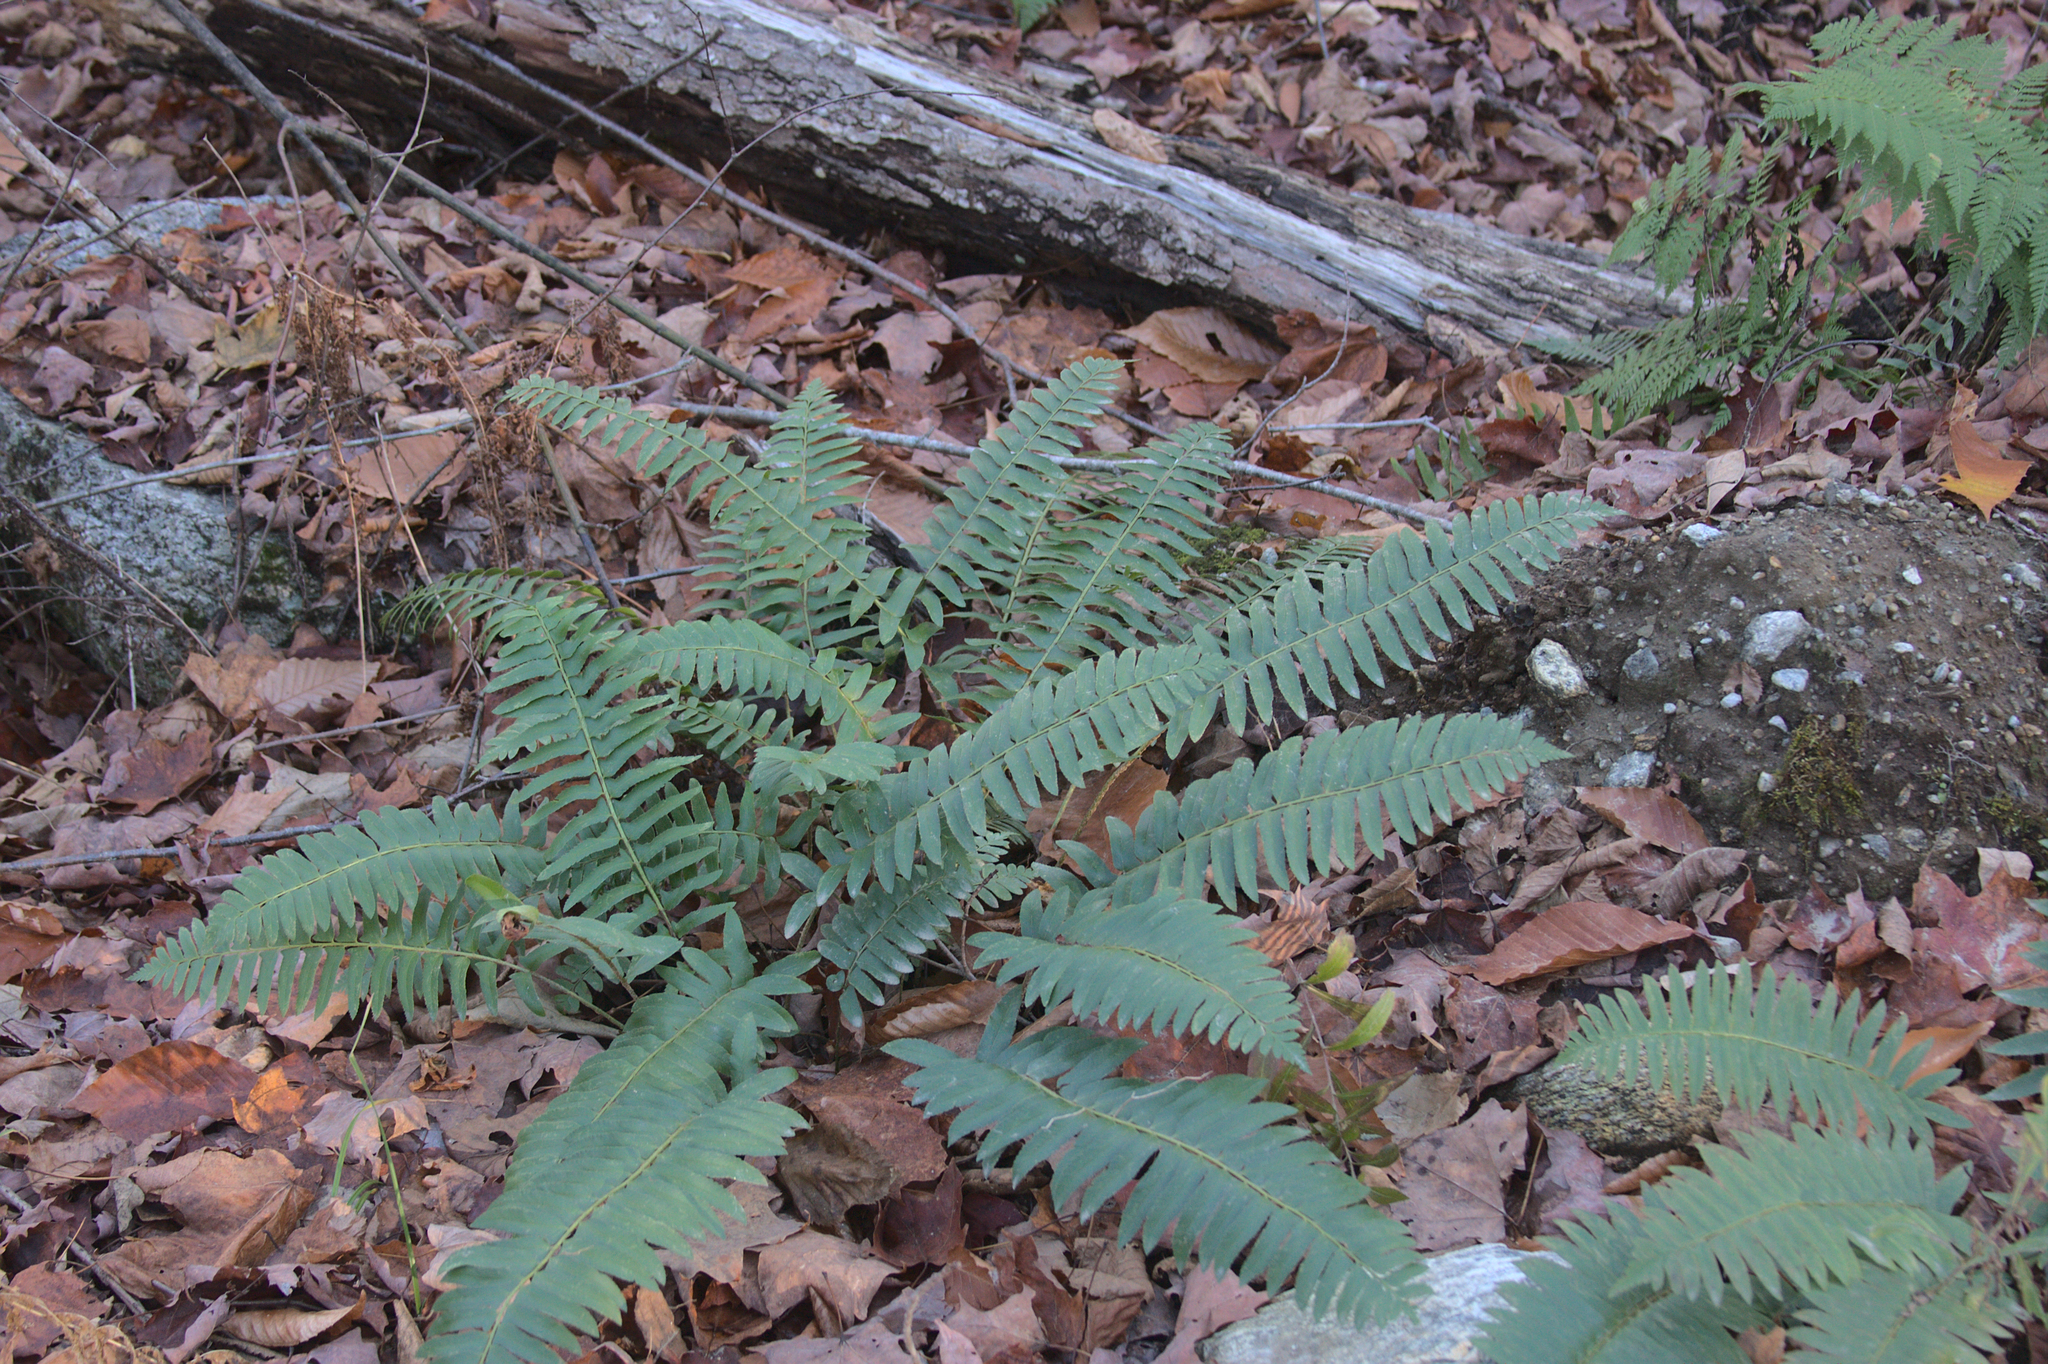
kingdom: Plantae
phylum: Tracheophyta
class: Polypodiopsida
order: Polypodiales
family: Dryopteridaceae
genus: Polystichum
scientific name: Polystichum acrostichoides
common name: Christmas fern
